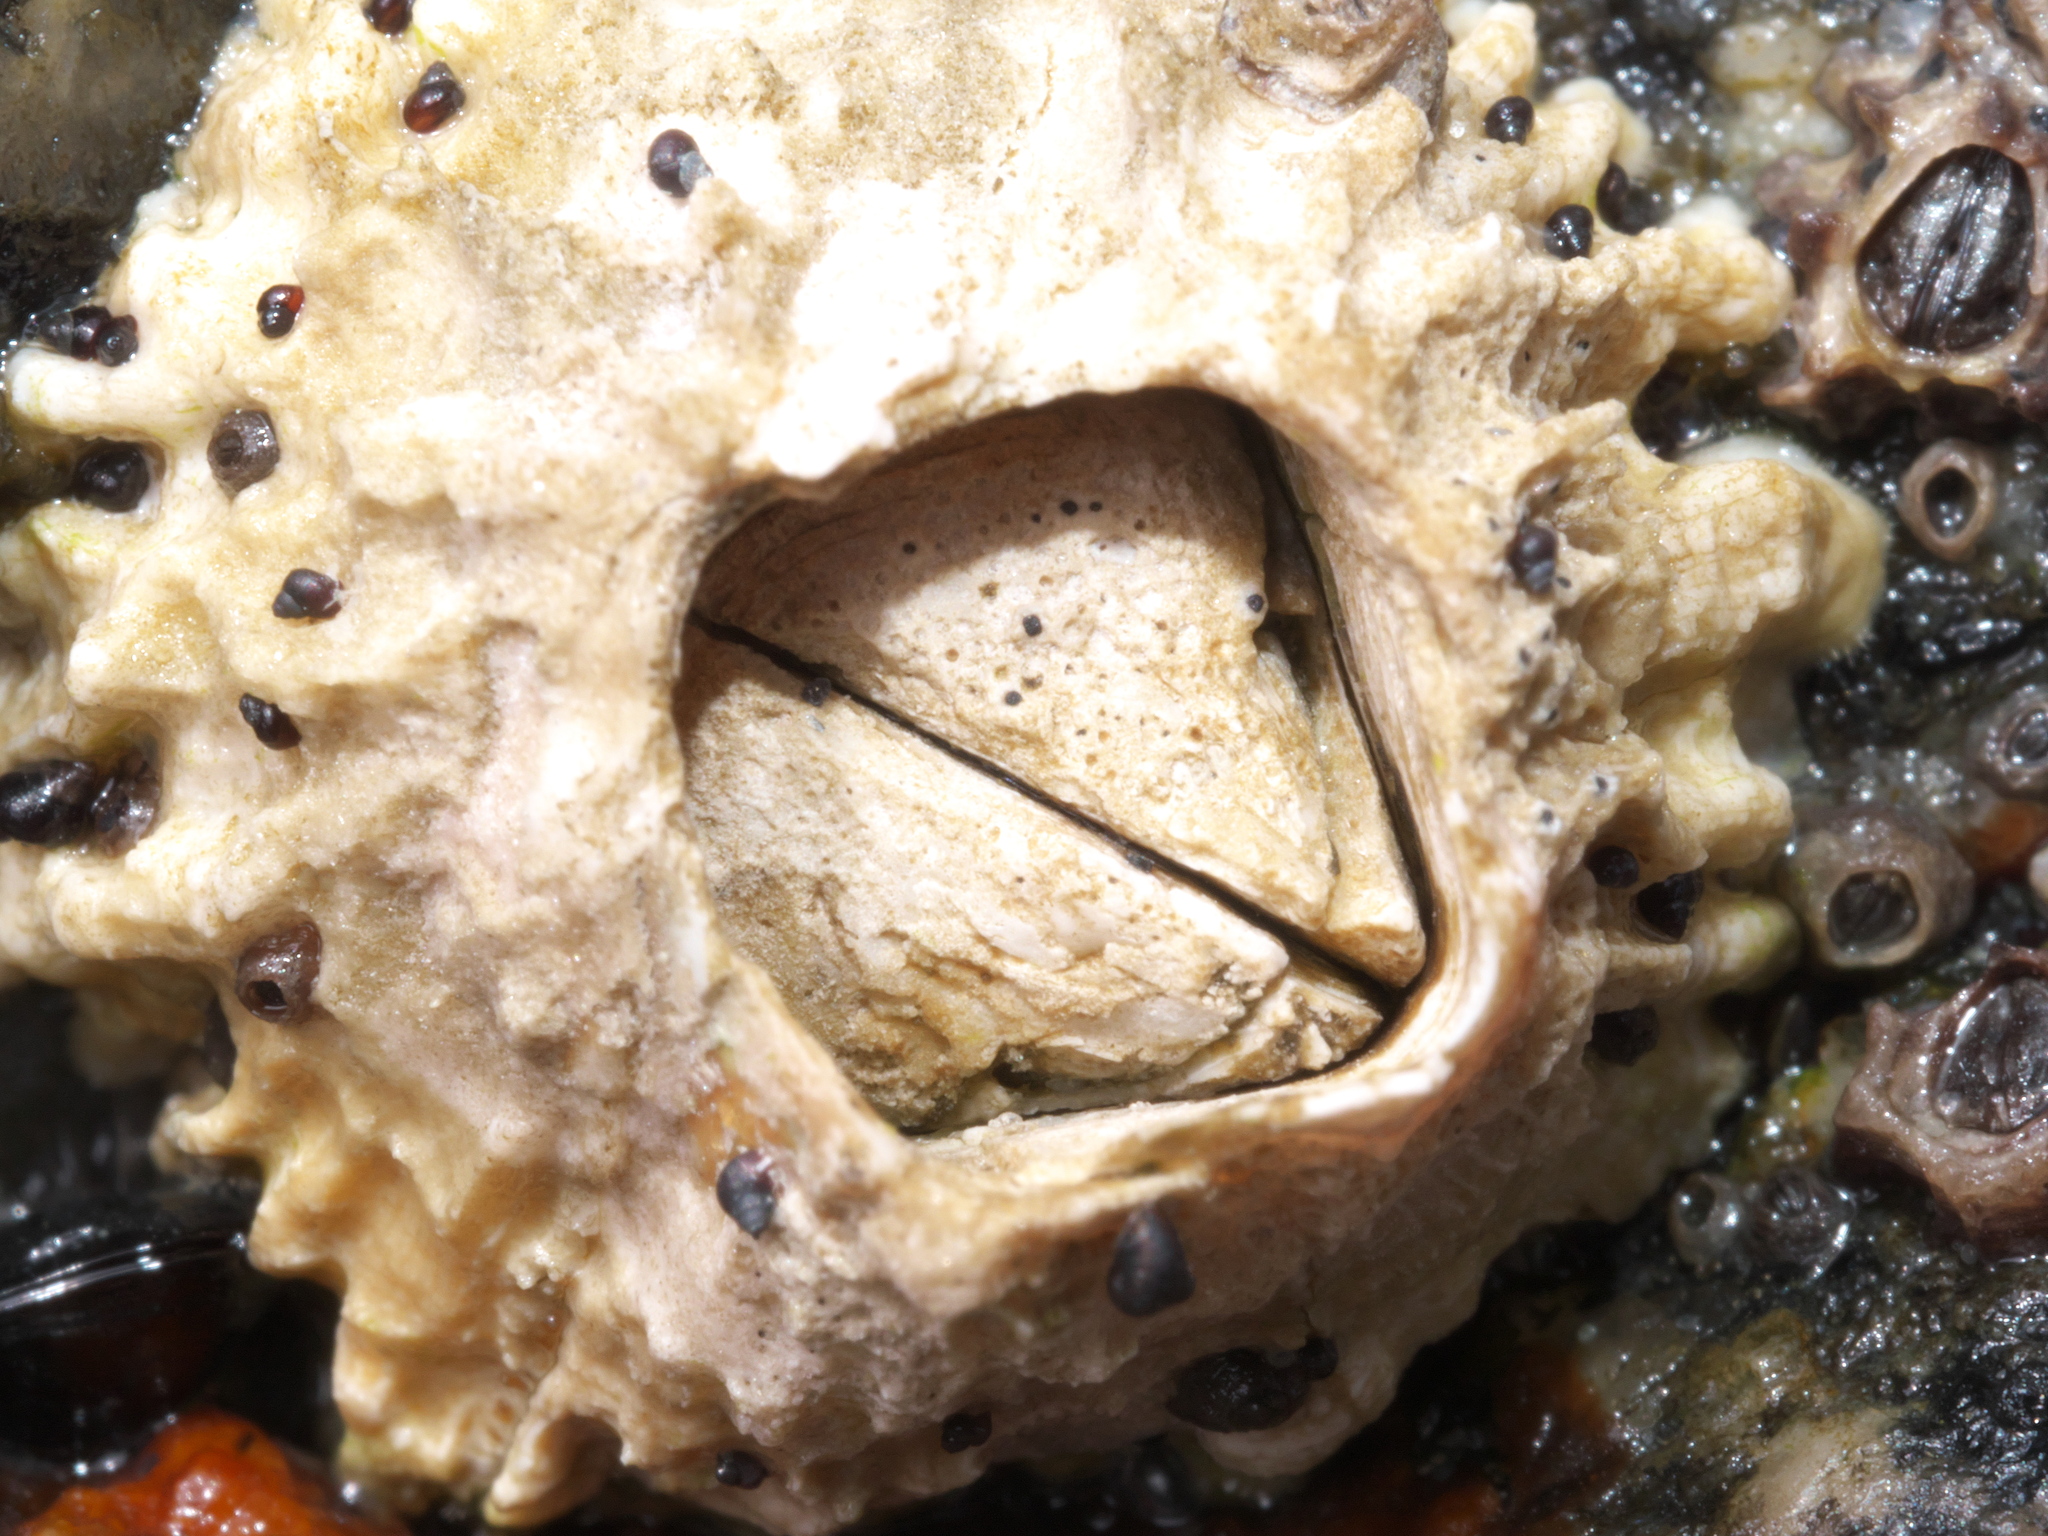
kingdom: Animalia
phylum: Arthropoda
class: Maxillopoda
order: Sessilia
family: Tetraclitidae
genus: Epopella
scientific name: Epopella plicata
